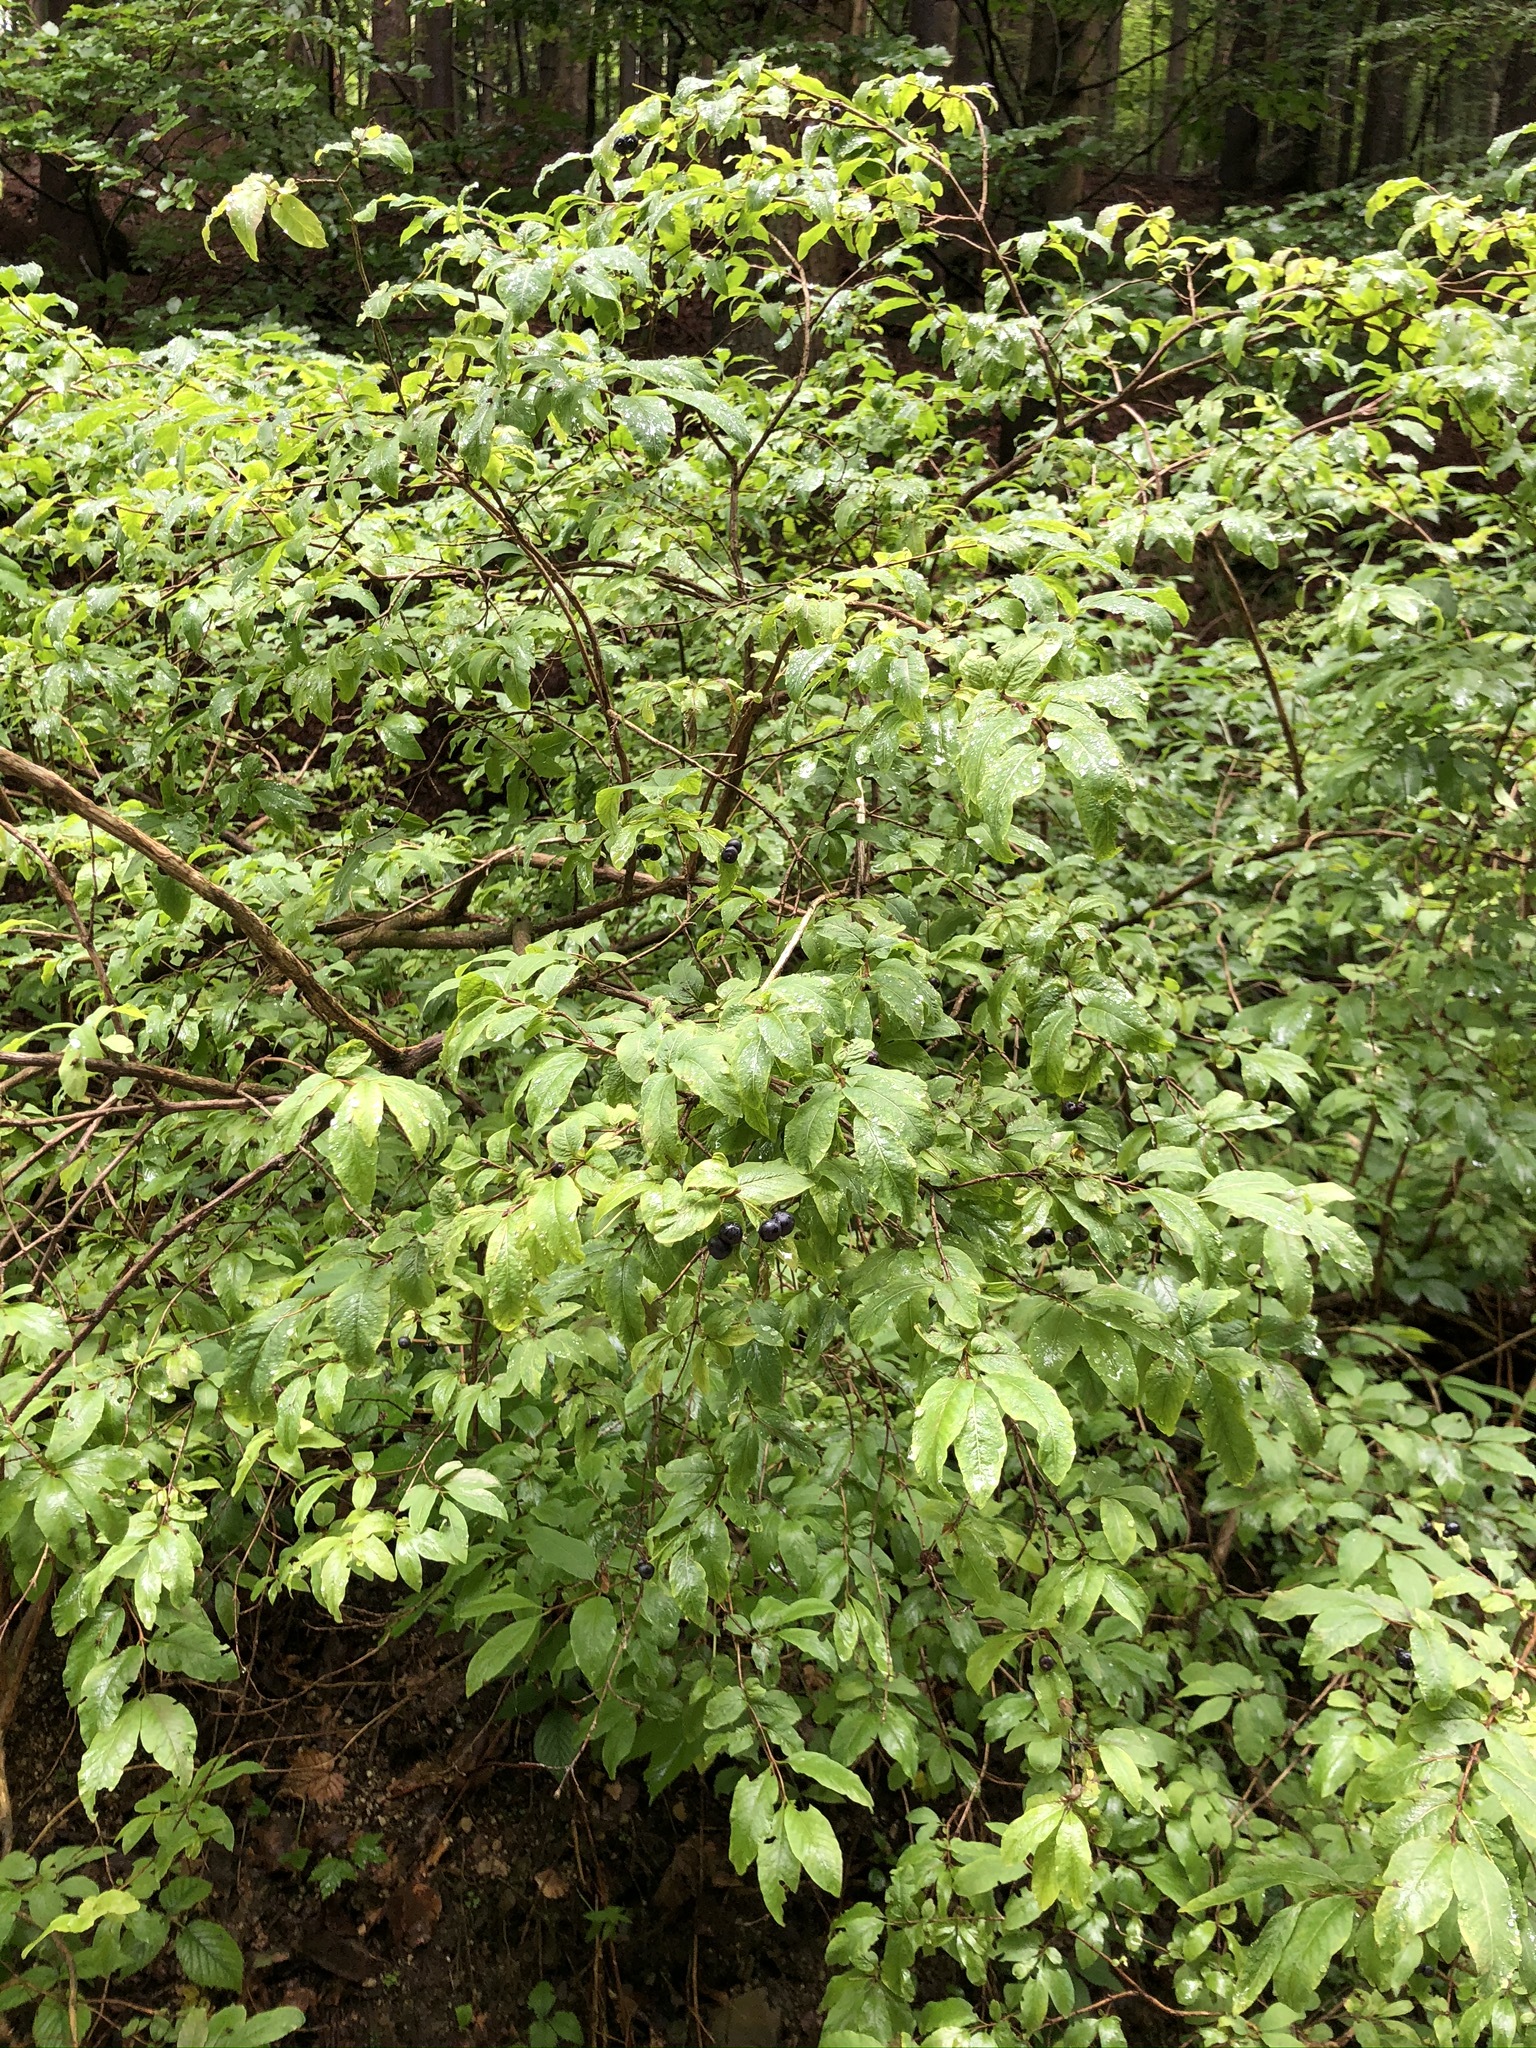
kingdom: Plantae
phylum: Tracheophyta
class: Magnoliopsida
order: Dipsacales
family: Caprifoliaceae
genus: Lonicera
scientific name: Lonicera nigra
